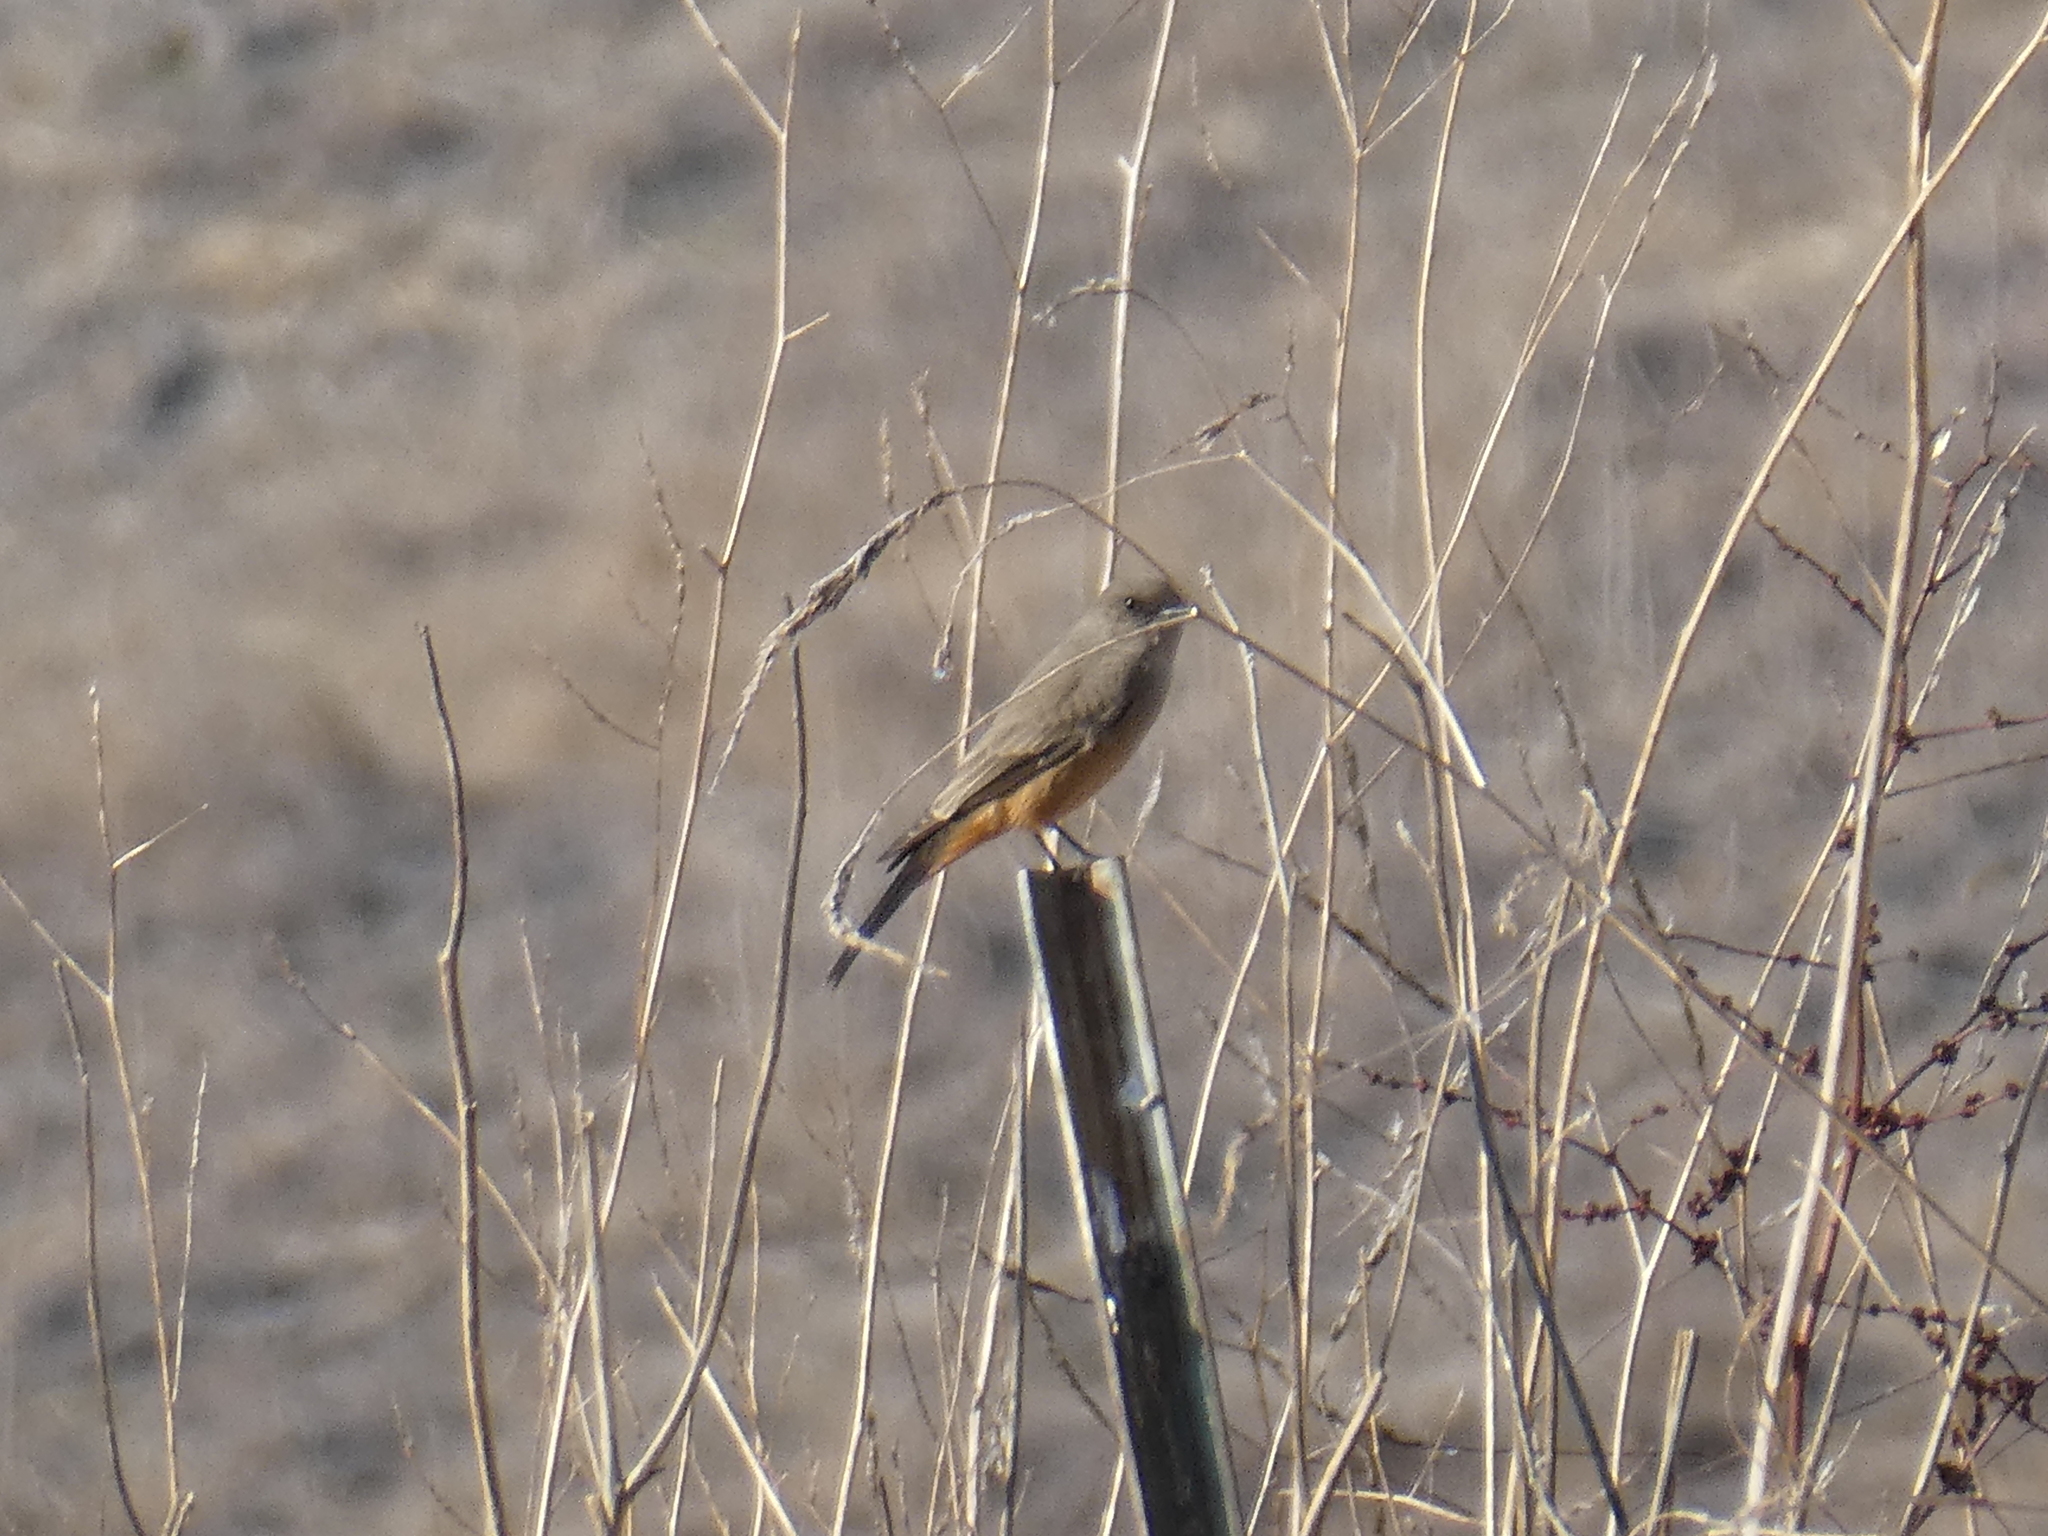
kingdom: Animalia
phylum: Chordata
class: Aves
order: Passeriformes
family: Tyrannidae
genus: Sayornis
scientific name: Sayornis saya
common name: Say's phoebe
